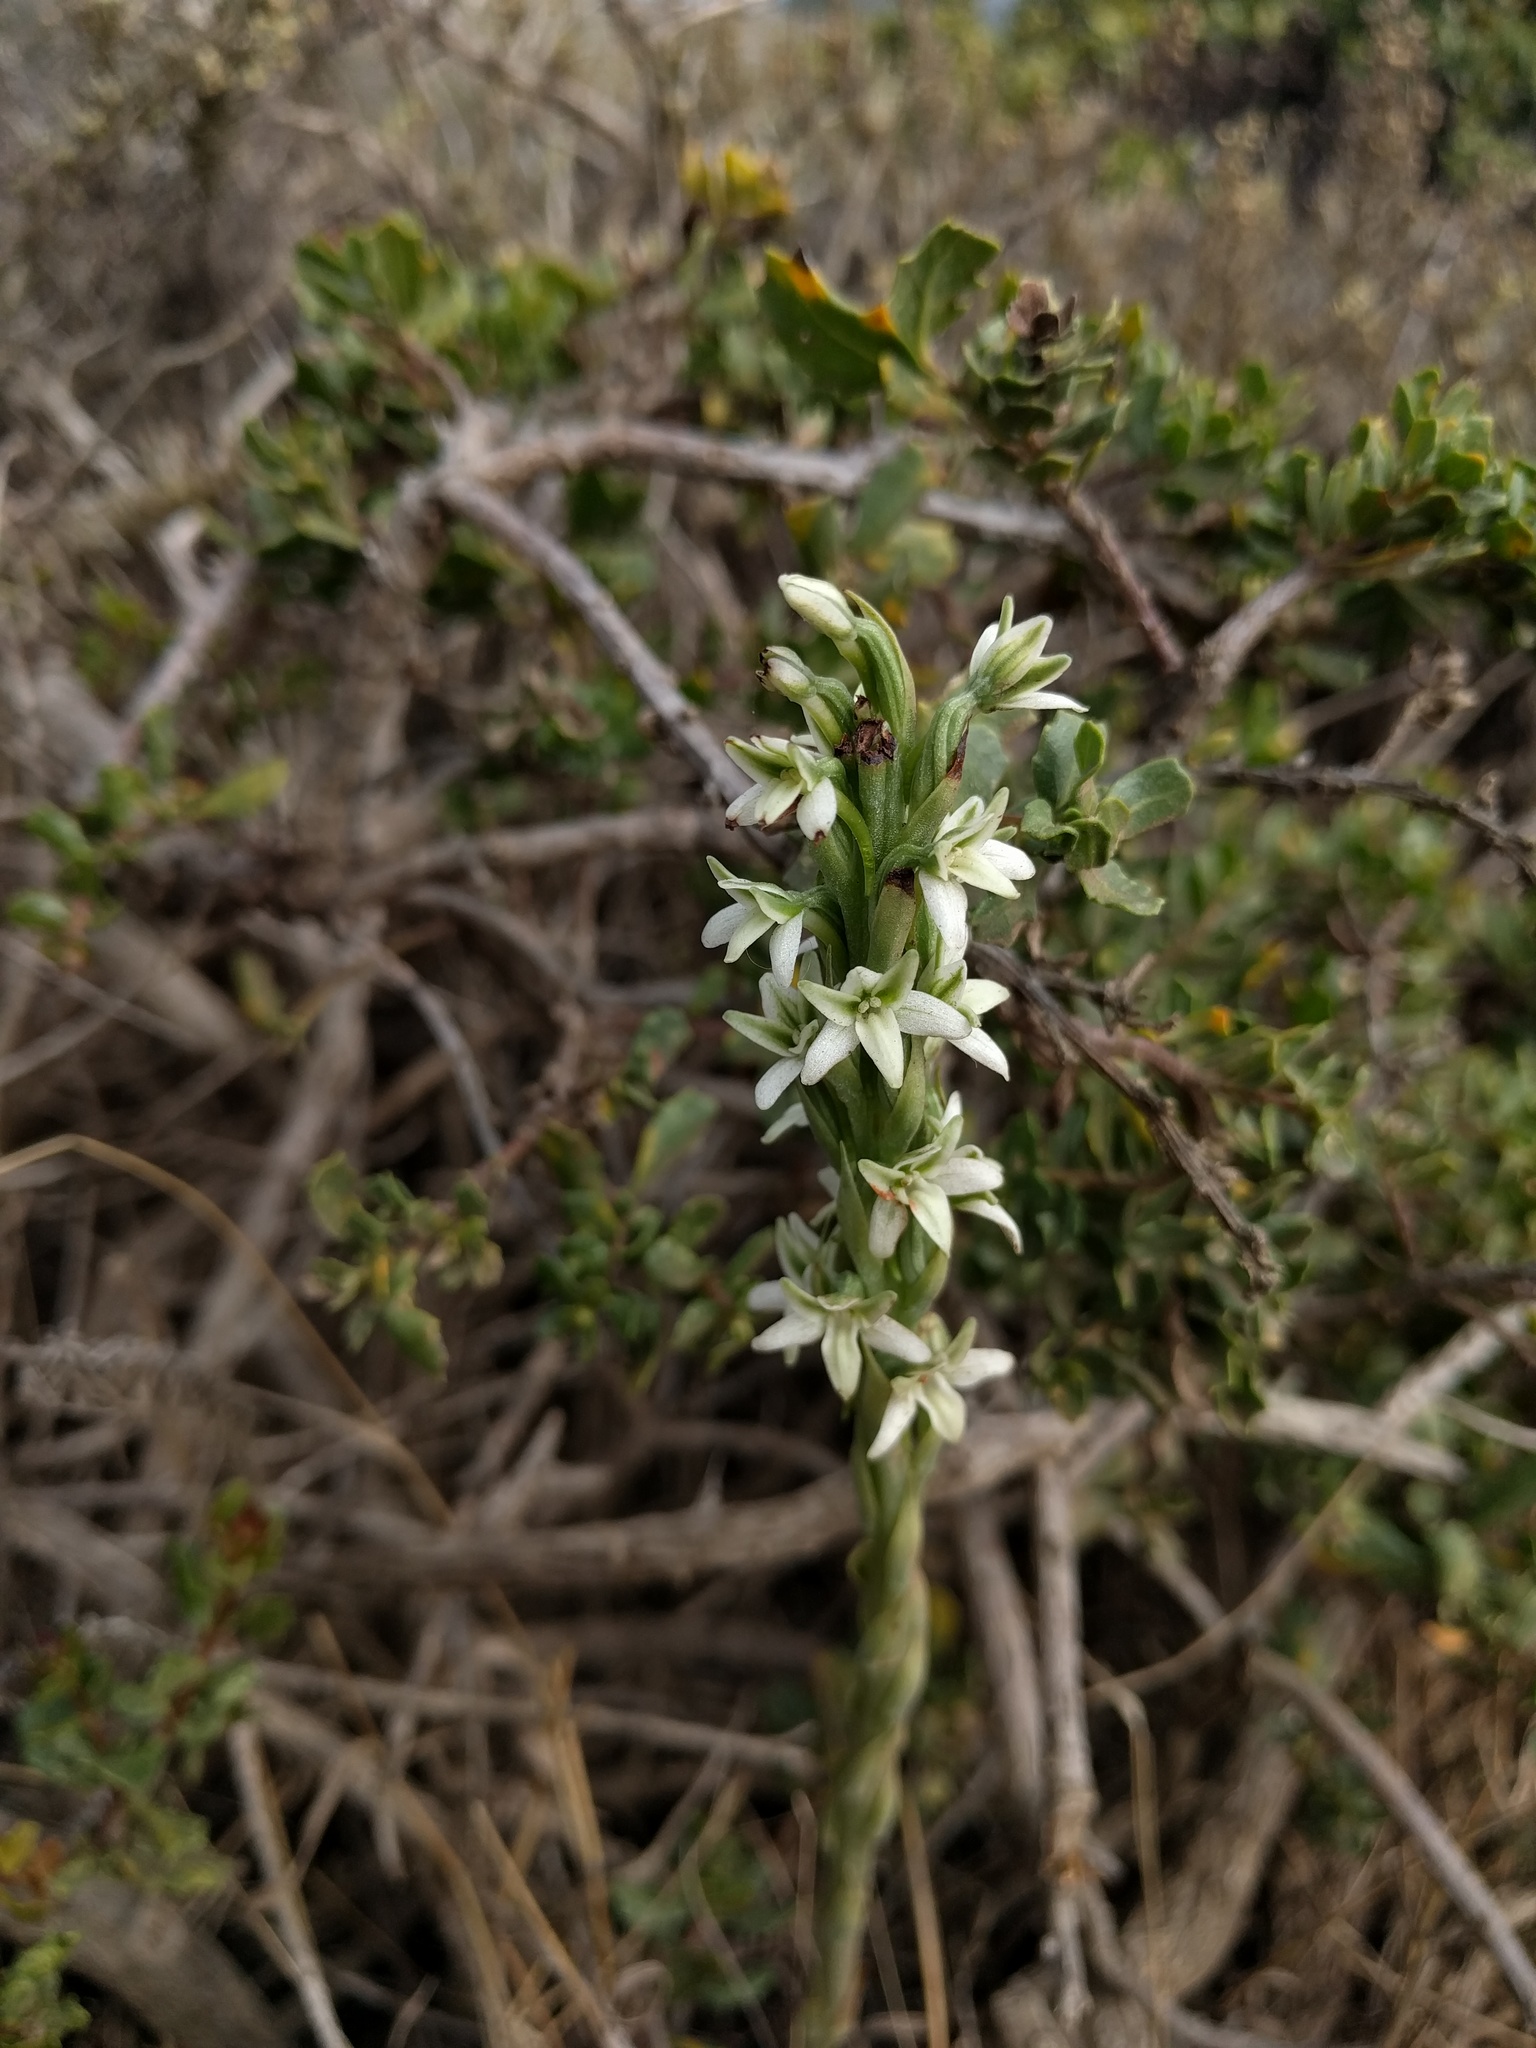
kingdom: Plantae
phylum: Tracheophyta
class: Liliopsida
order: Asparagales
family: Orchidaceae
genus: Platanthera
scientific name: Platanthera elegans
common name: Coast piperia
